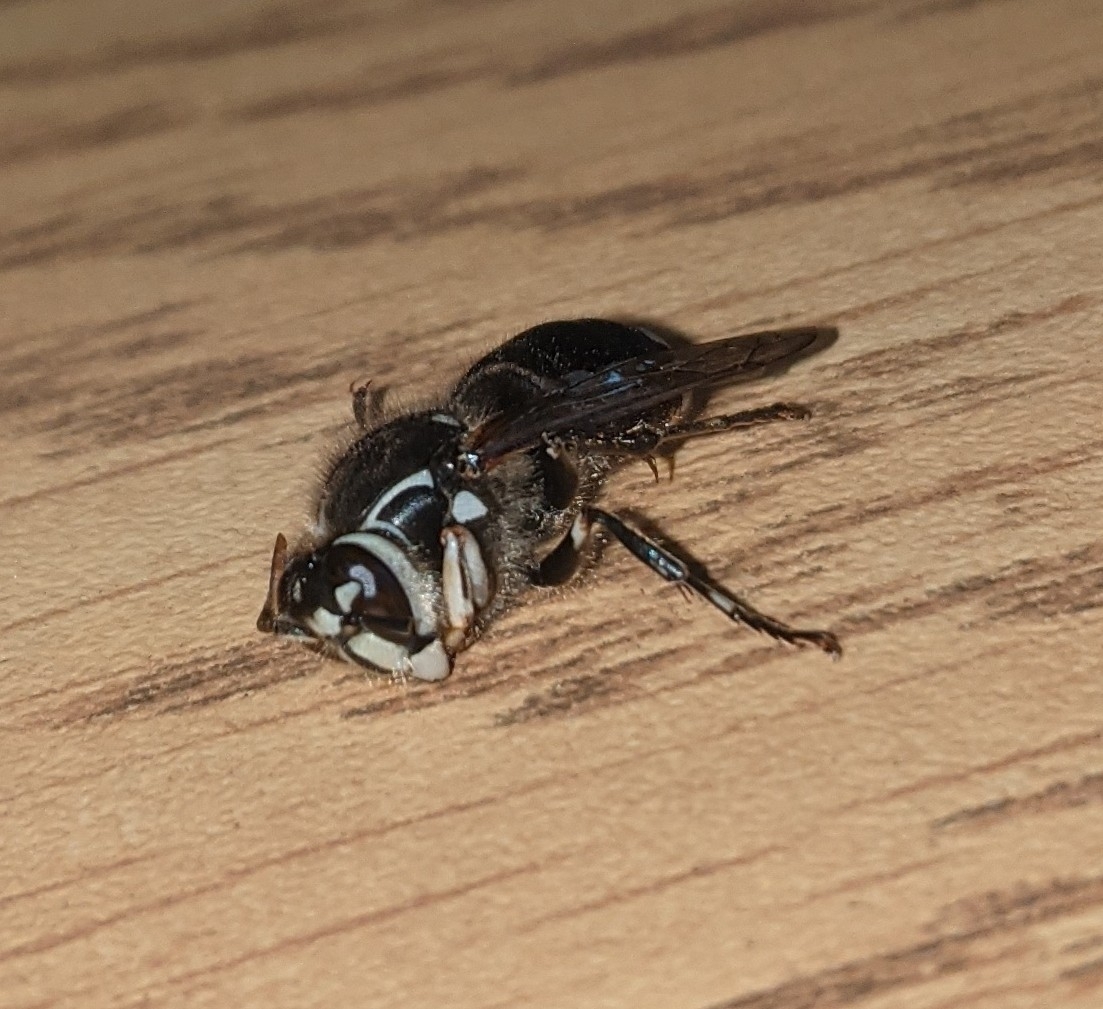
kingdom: Animalia
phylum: Arthropoda
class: Insecta
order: Hymenoptera
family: Vespidae
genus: Dolichovespula
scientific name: Dolichovespula maculata
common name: Bald-faced hornet
